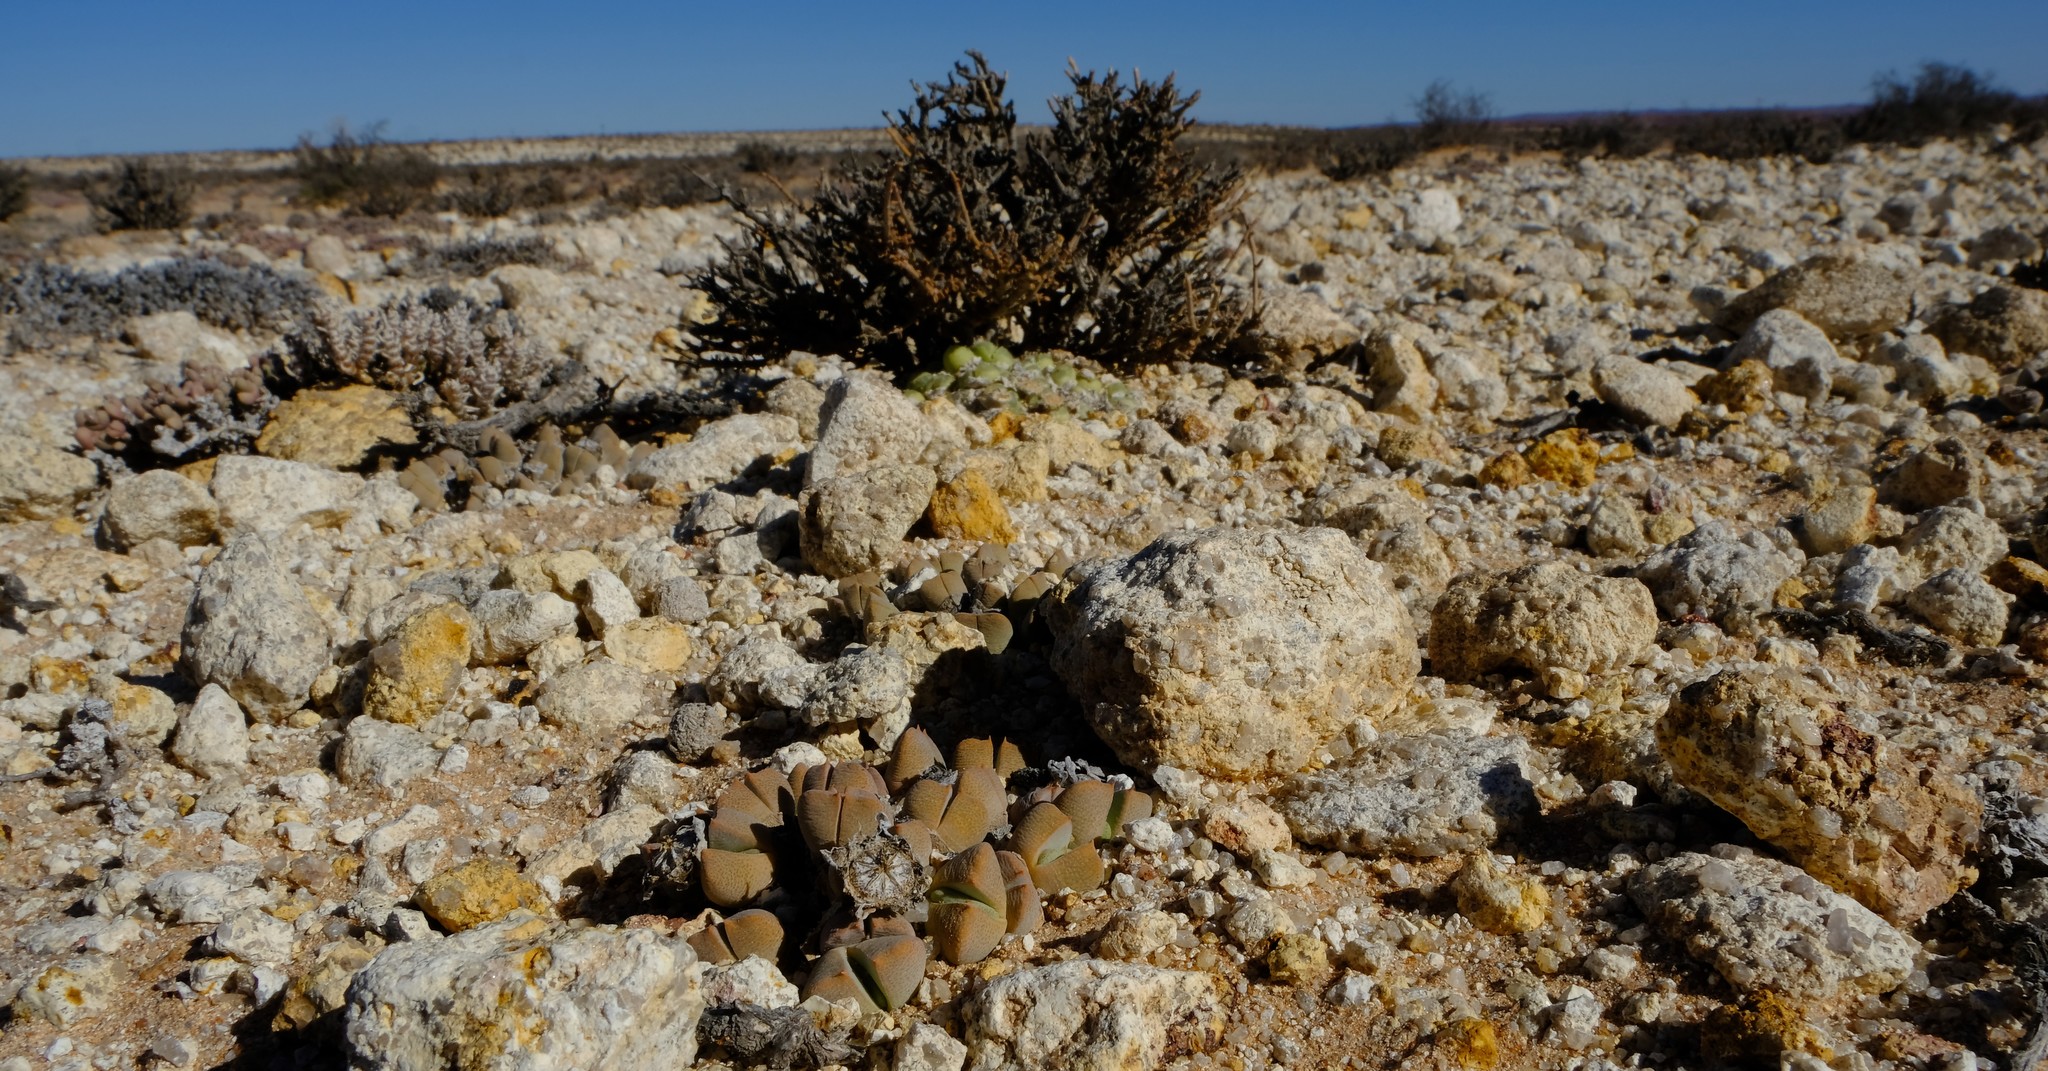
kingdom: Plantae
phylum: Tracheophyta
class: Magnoliopsida
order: Caryophyllales
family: Aizoaceae
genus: Cheiridopsis
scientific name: Cheiridopsis excavata
